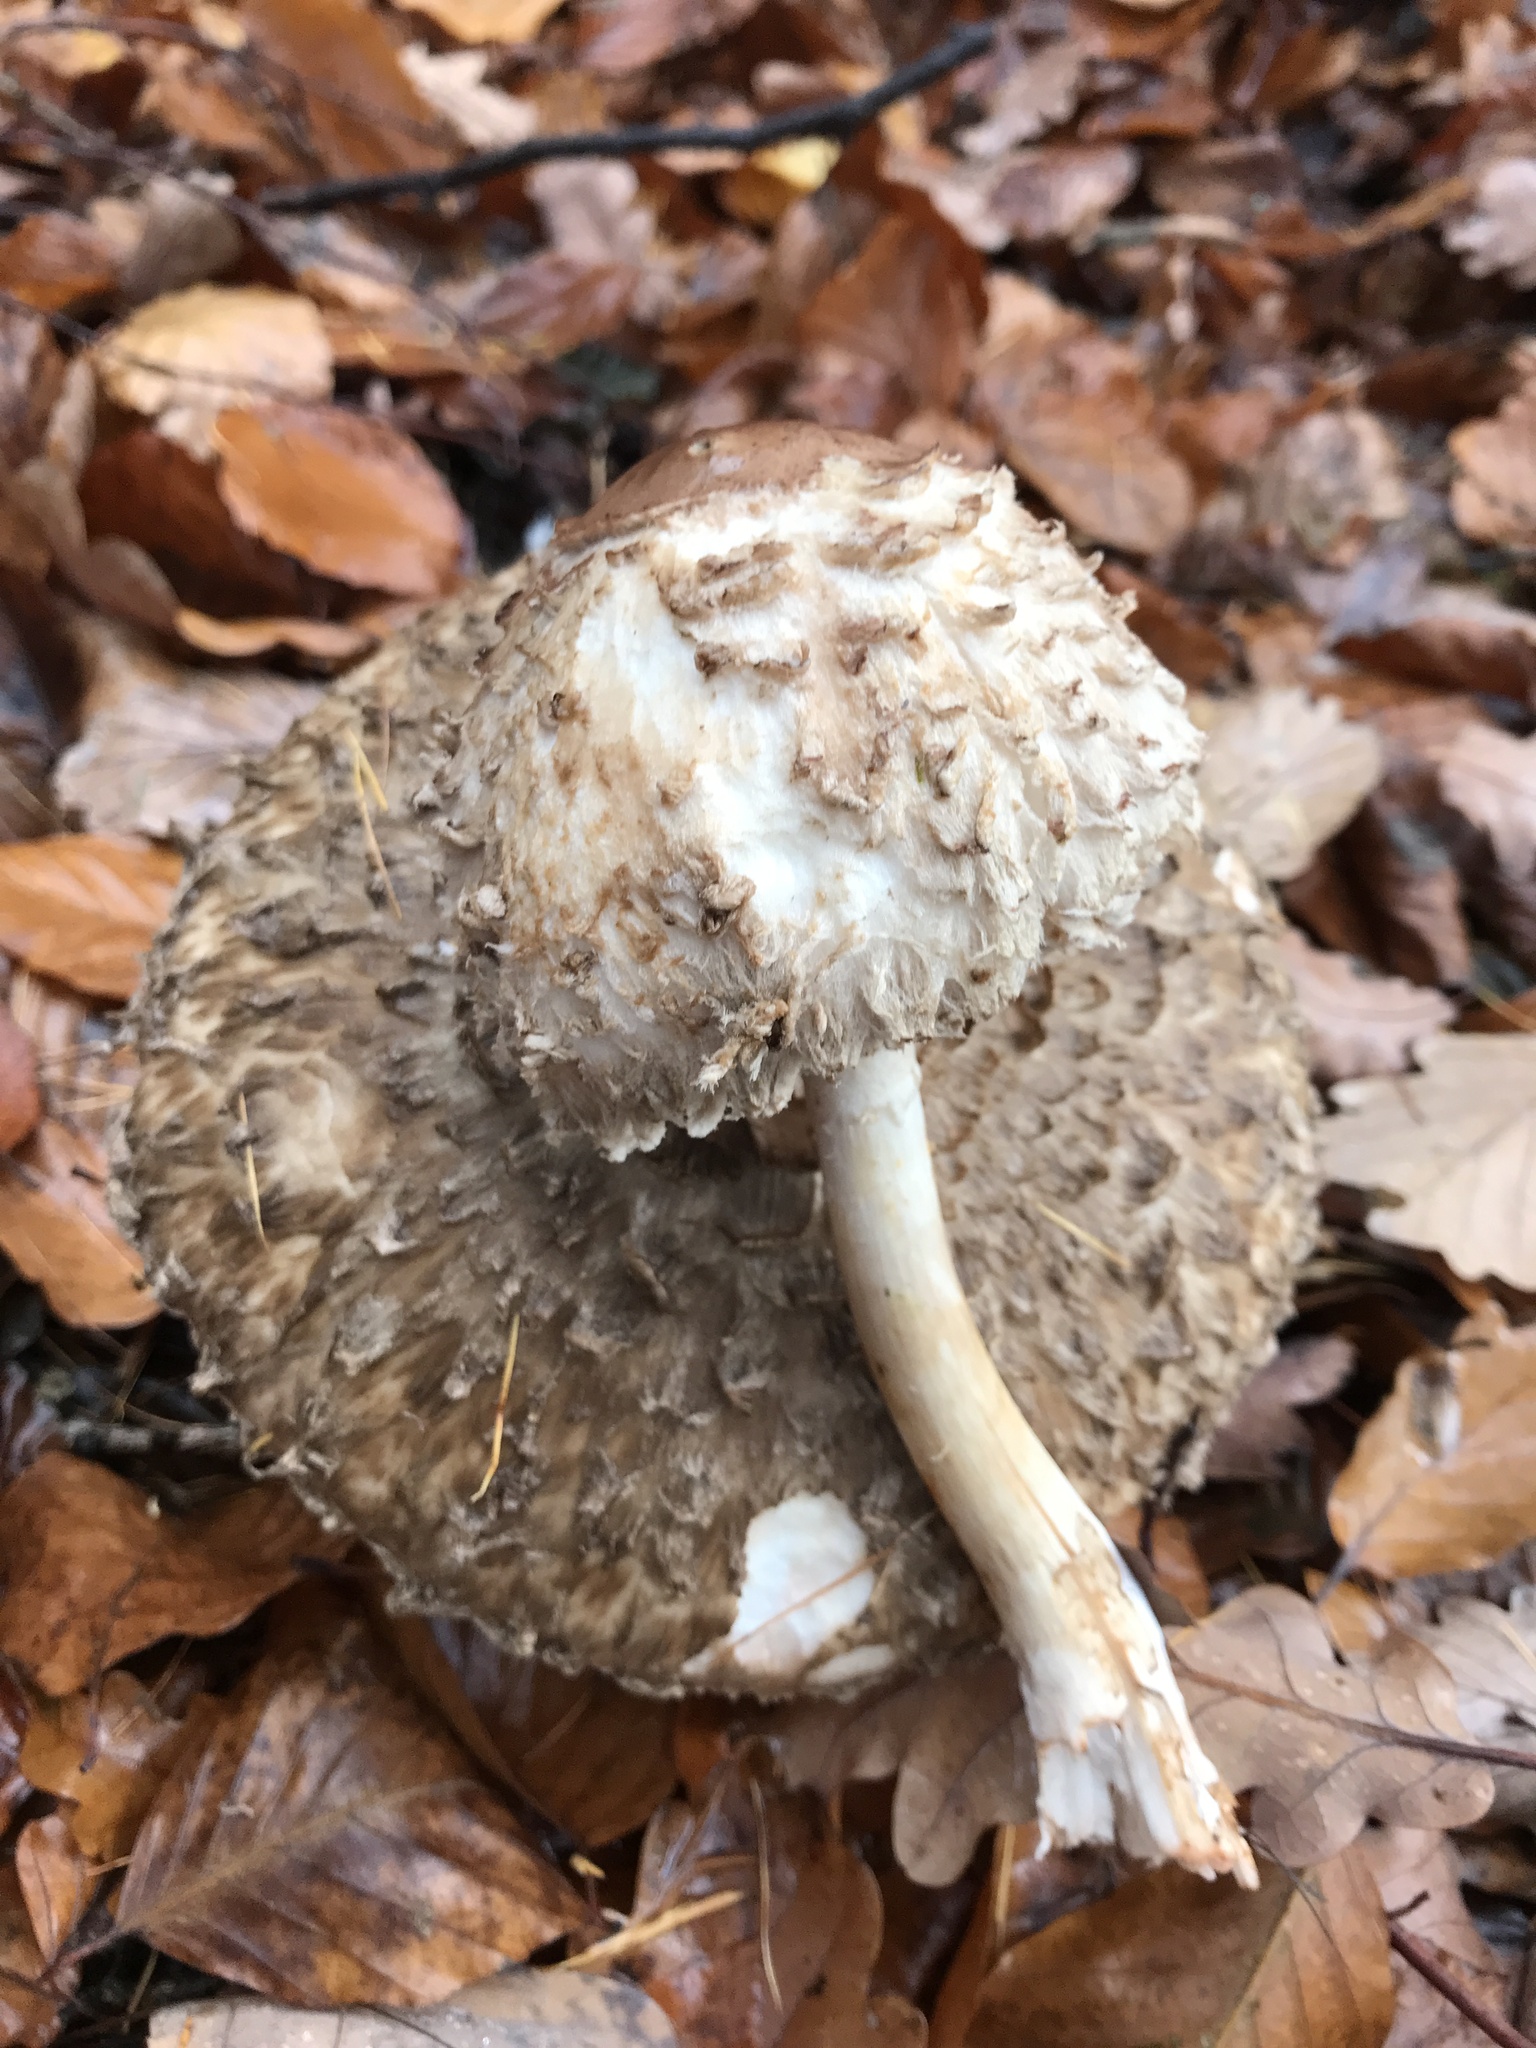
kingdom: Fungi
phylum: Basidiomycota
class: Agaricomycetes
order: Agaricales
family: Agaricaceae
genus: Chlorophyllum
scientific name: Chlorophyllum olivieri
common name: Conifer parasol
